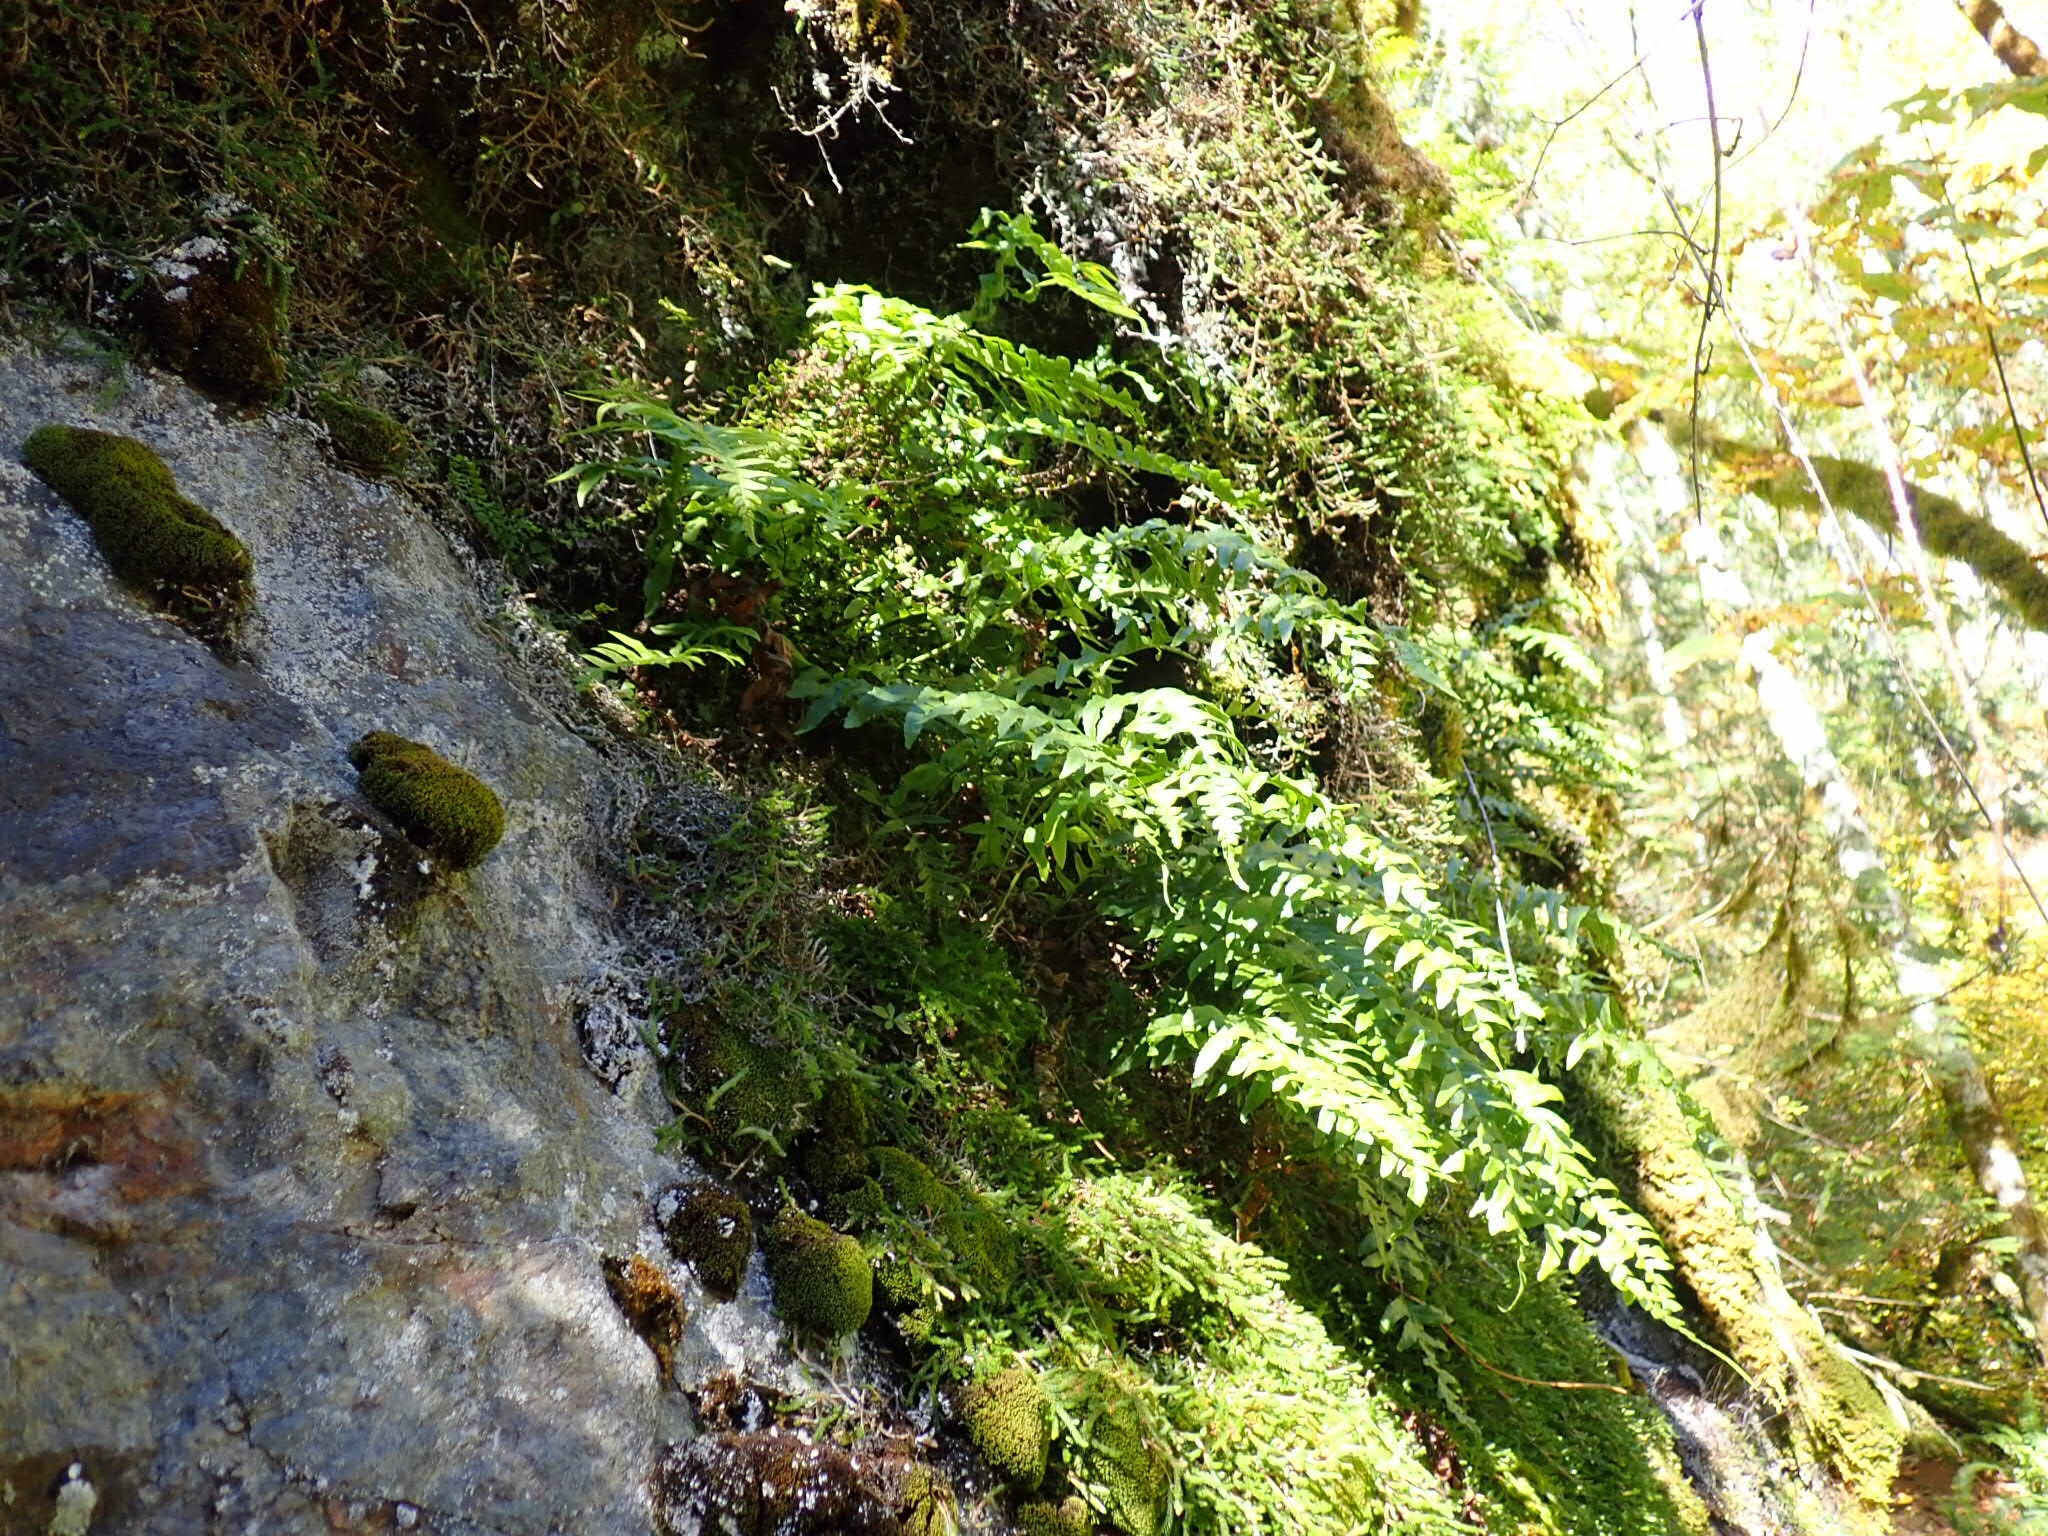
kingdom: Plantae
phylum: Tracheophyta
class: Polypodiopsida
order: Polypodiales
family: Polypodiaceae
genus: Polypodium
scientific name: Polypodium glycyrrhiza
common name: Licorice fern
